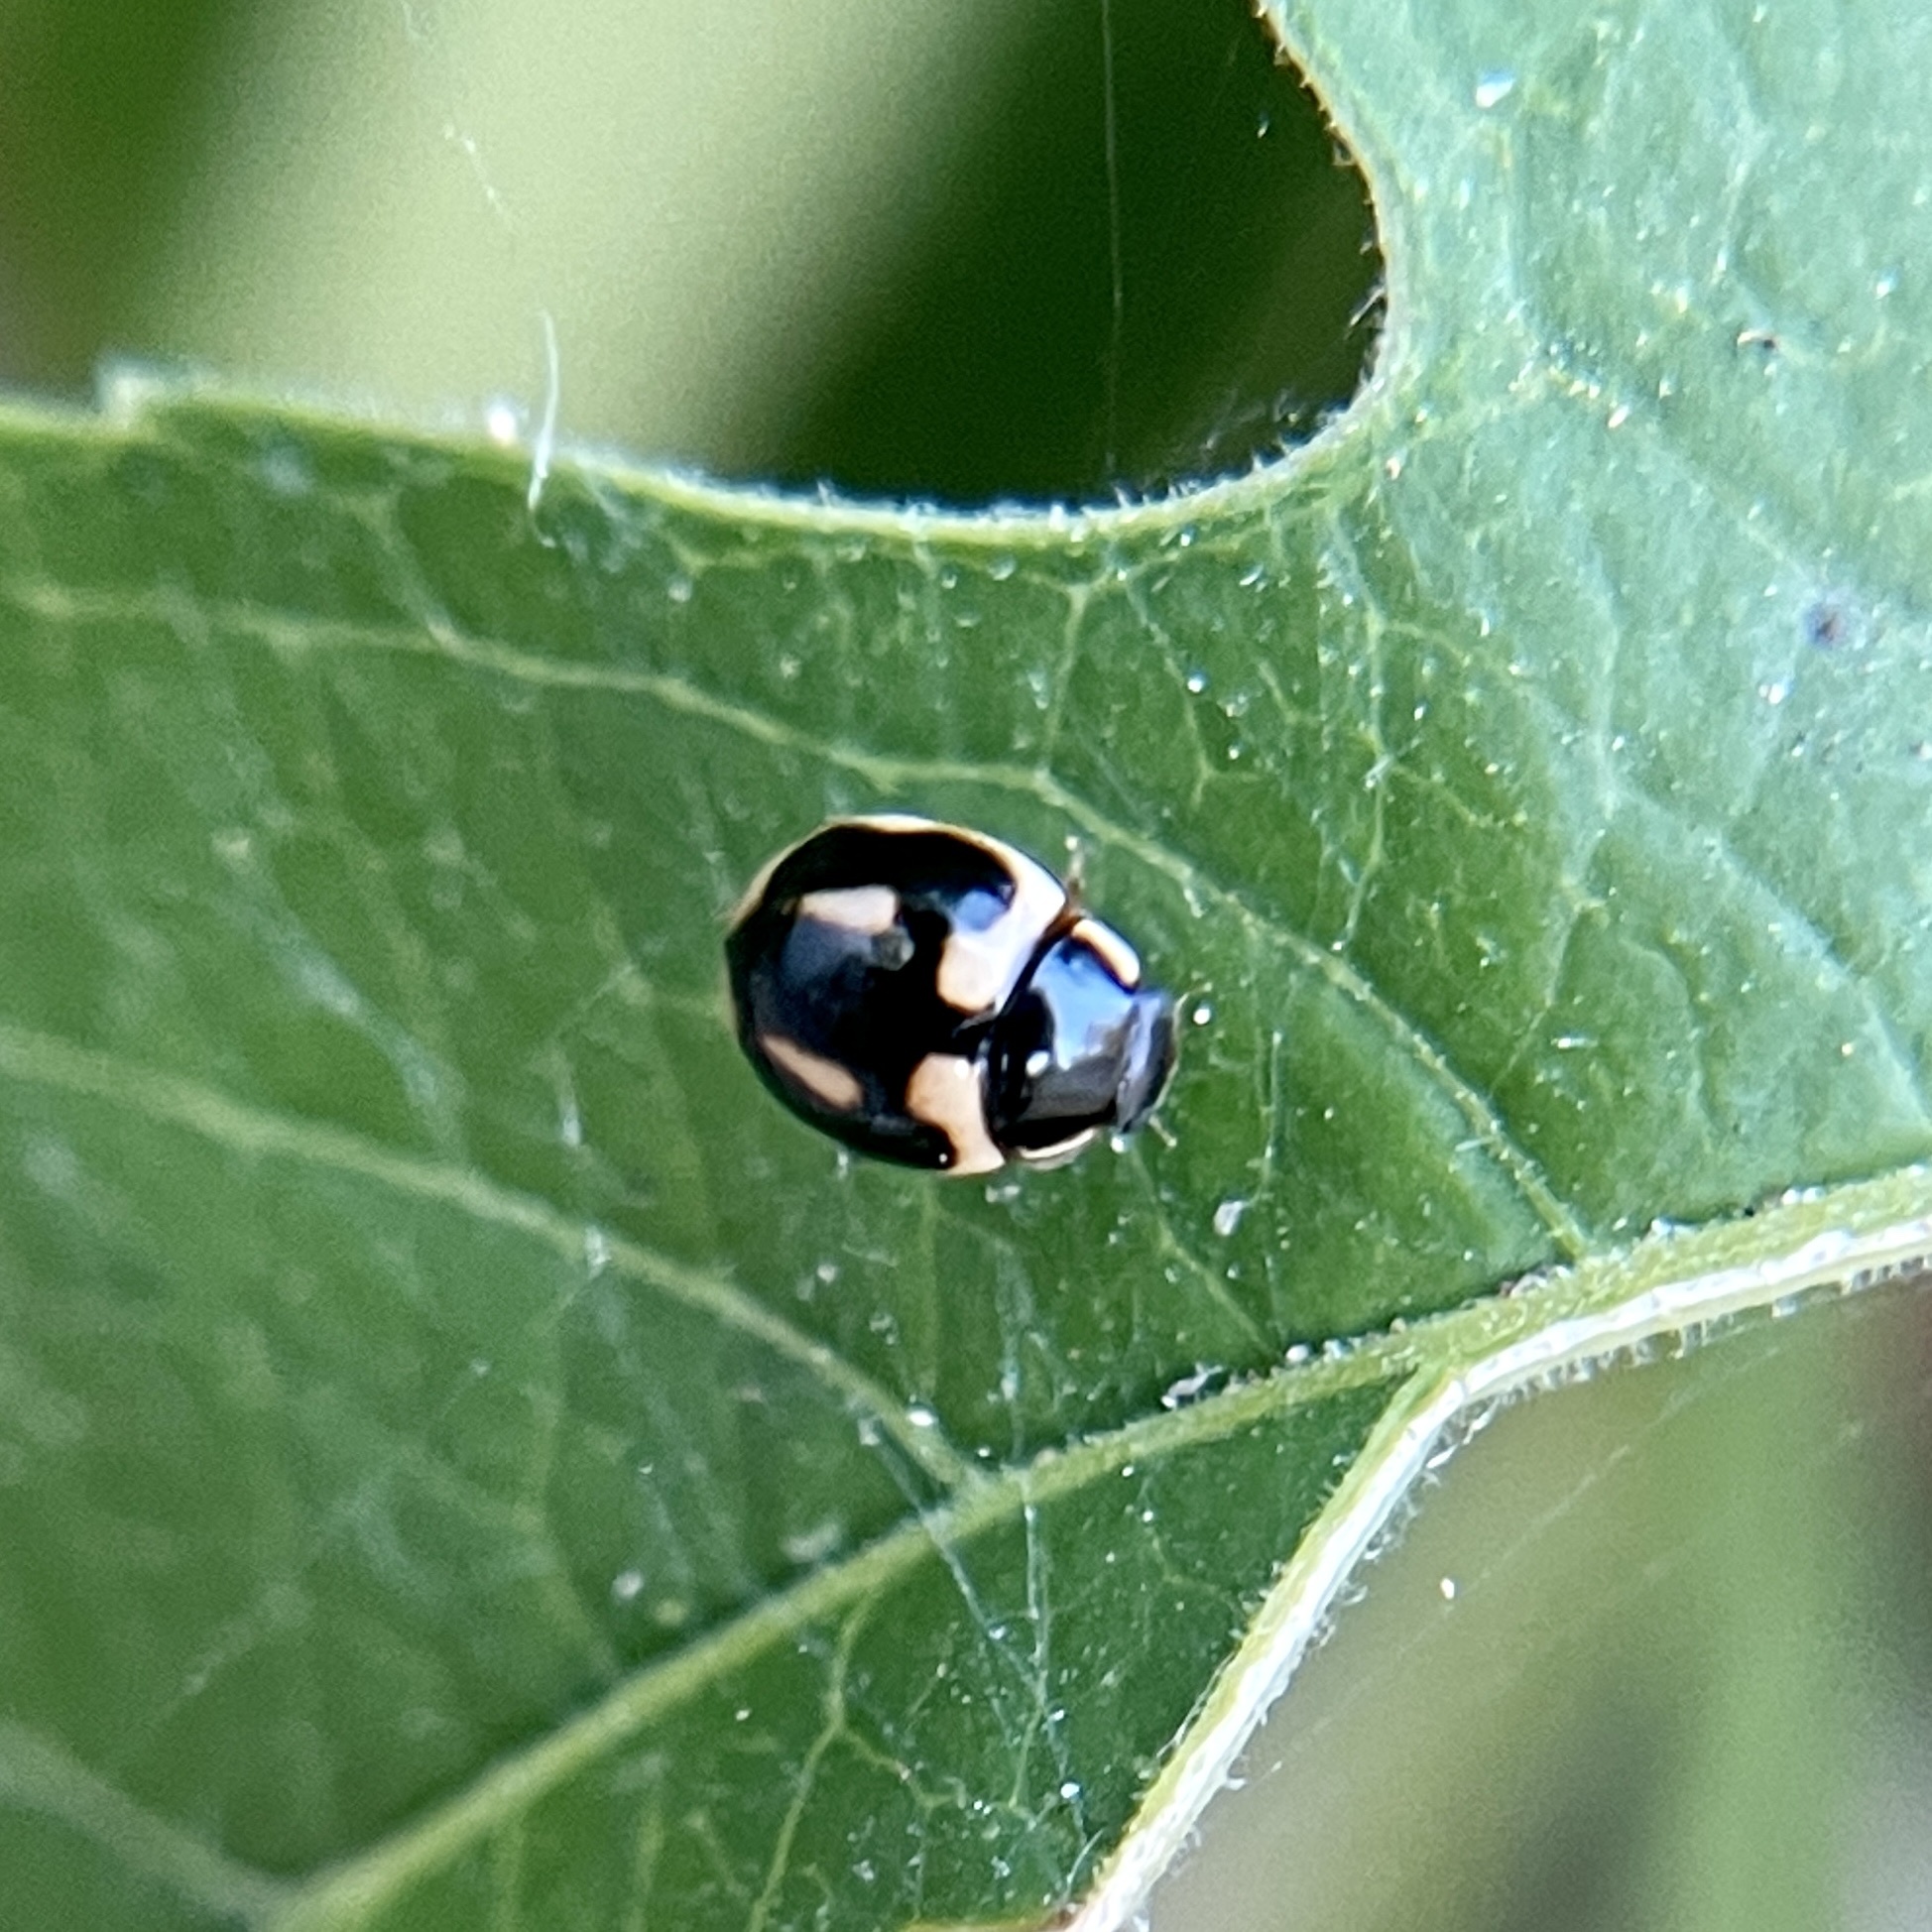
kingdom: Animalia
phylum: Arthropoda
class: Insecta
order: Coleoptera
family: Coccinellidae
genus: Hyperaspis
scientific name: Hyperaspis trifurcata
